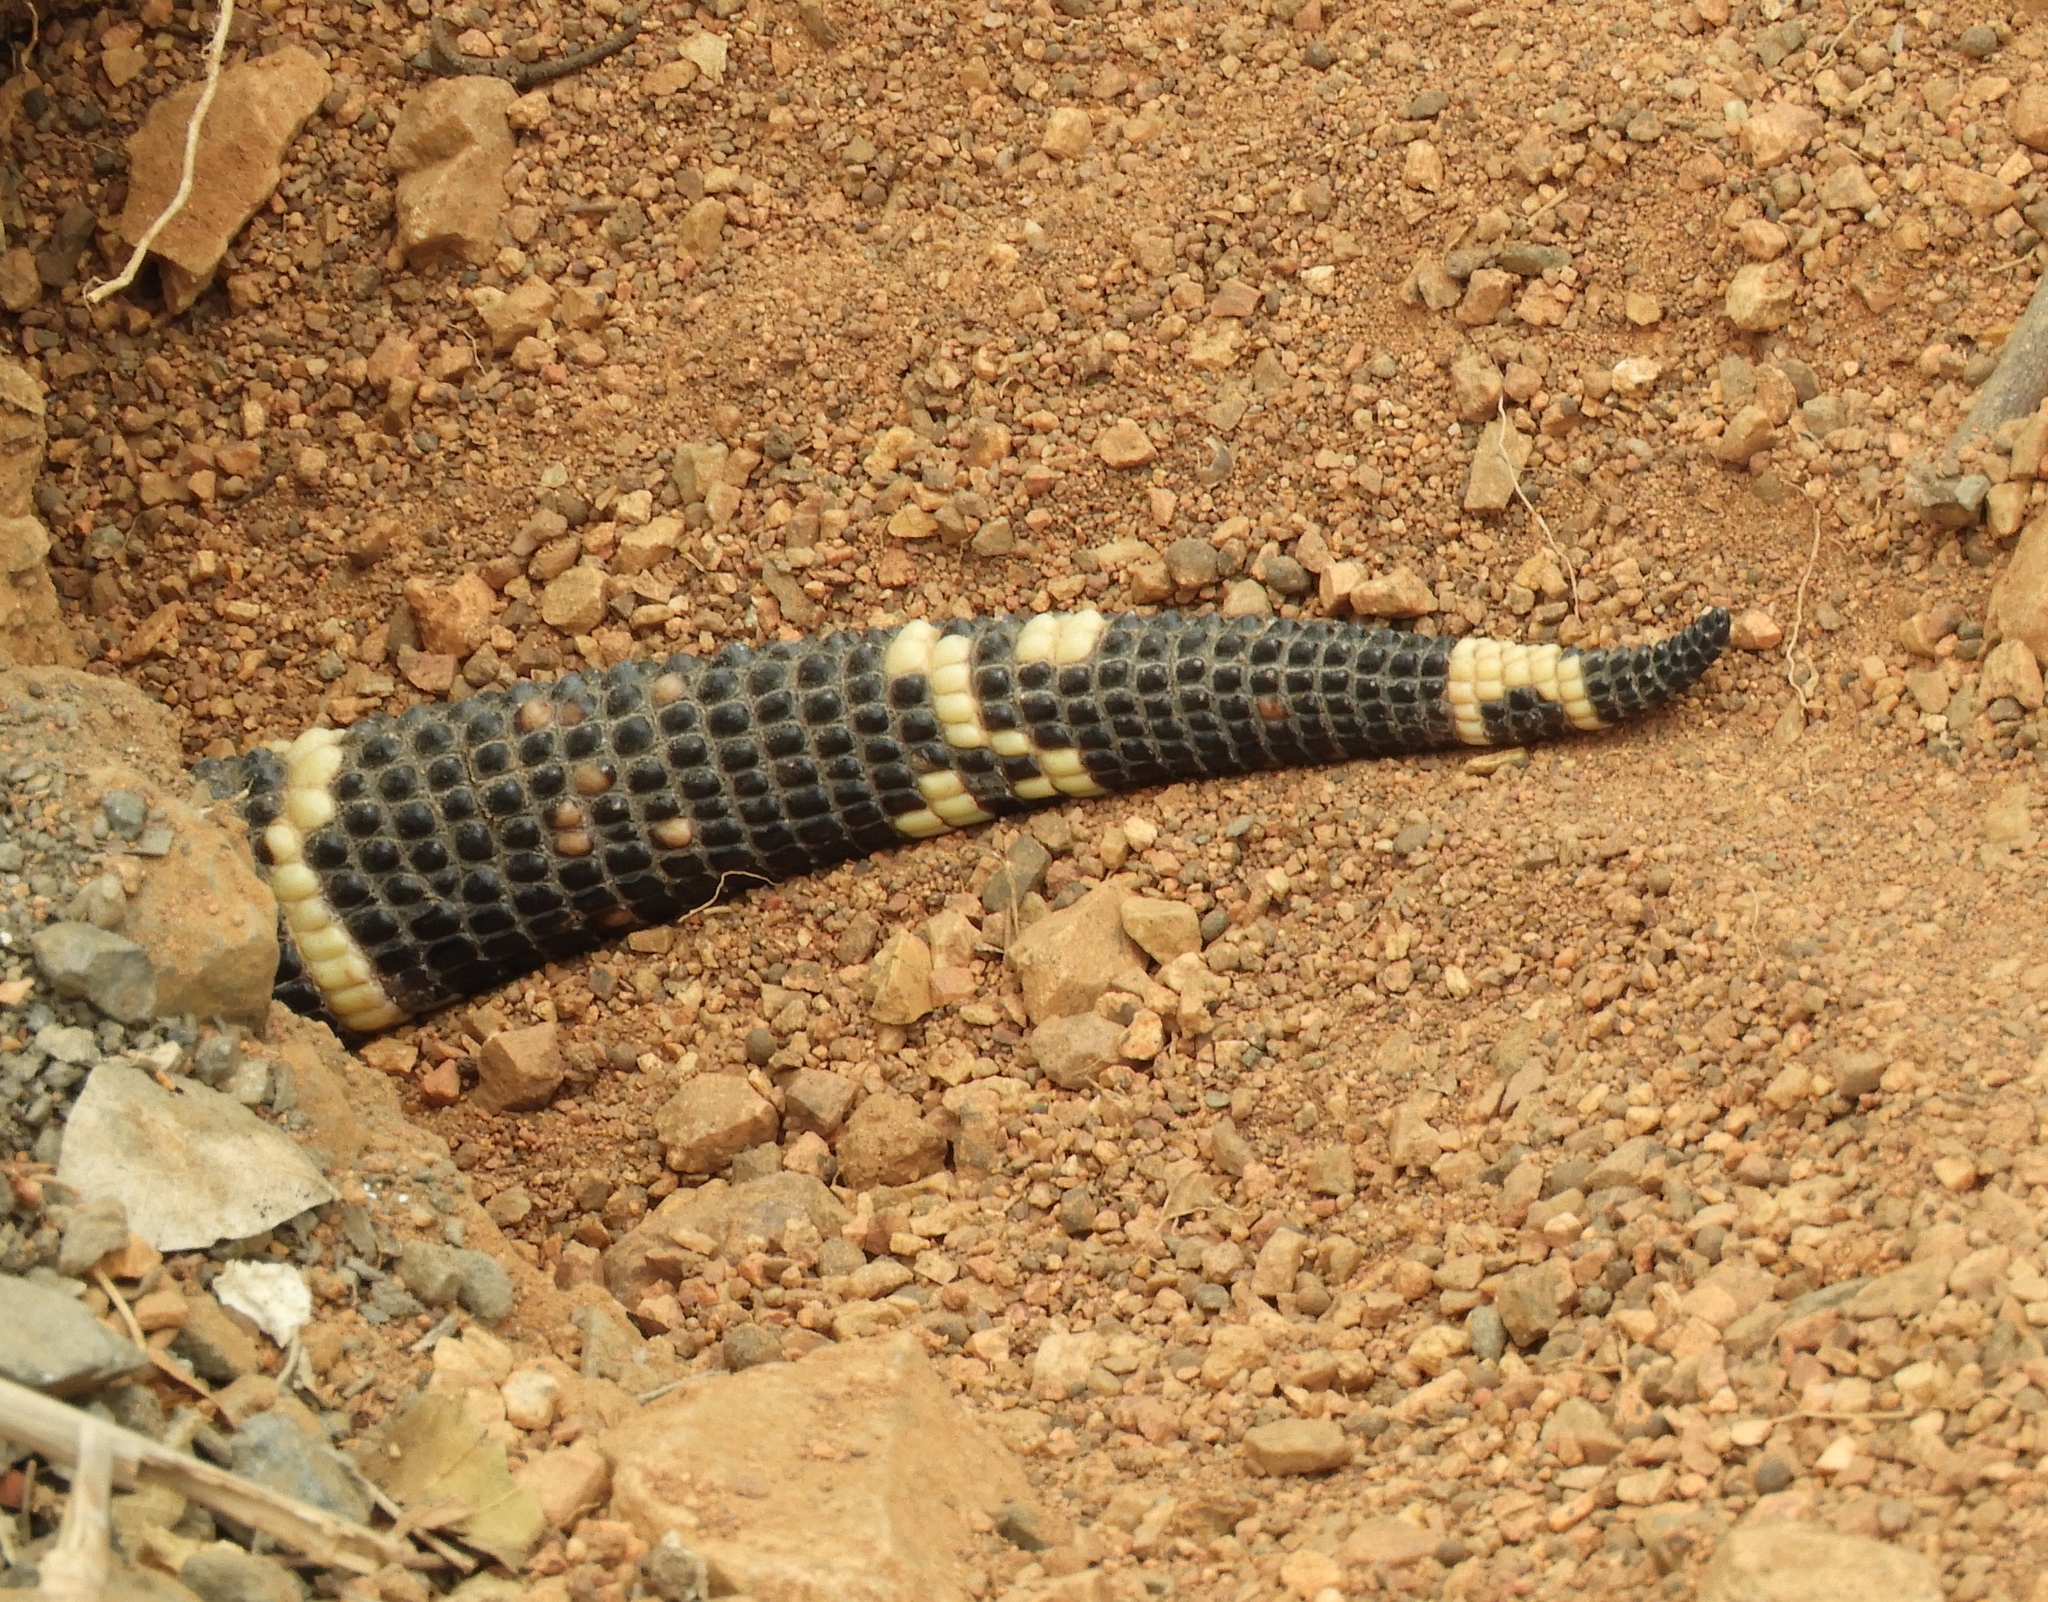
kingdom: Animalia
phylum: Chordata
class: Squamata
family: Helodermatidae
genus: Heloderma
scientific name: Heloderma horridum
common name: Mexican beaded lizard
